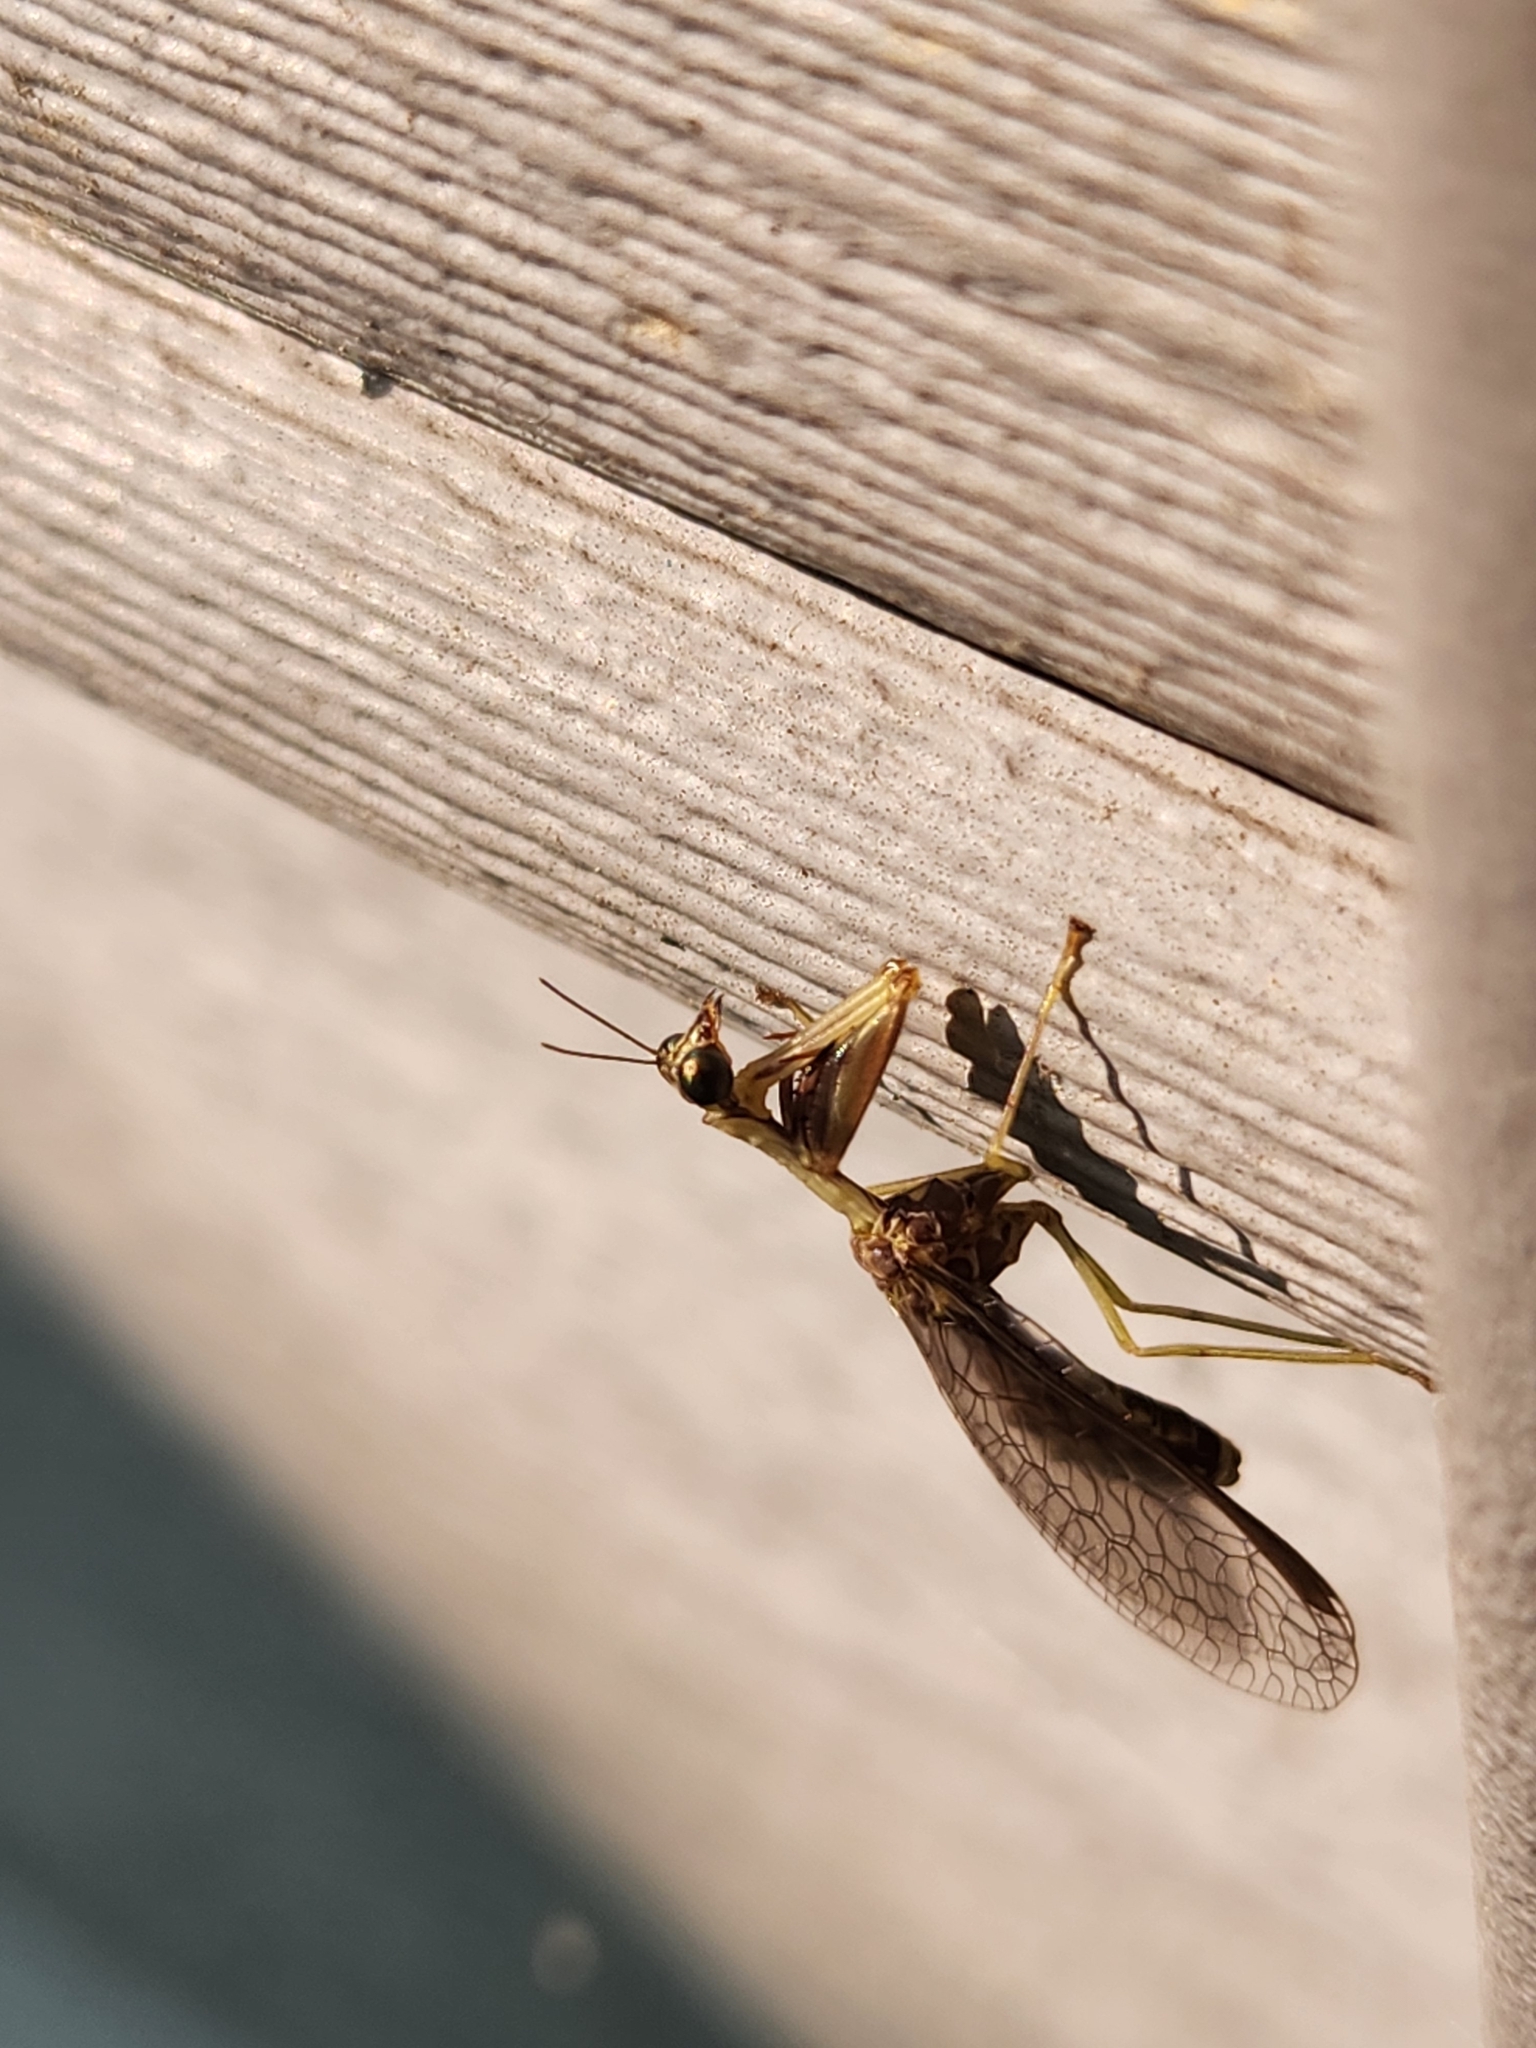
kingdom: Animalia
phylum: Arthropoda
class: Insecta
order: Neuroptera
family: Mantispidae
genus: Dicromantispa
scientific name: Dicromantispa sayi
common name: Say's mantidfly
